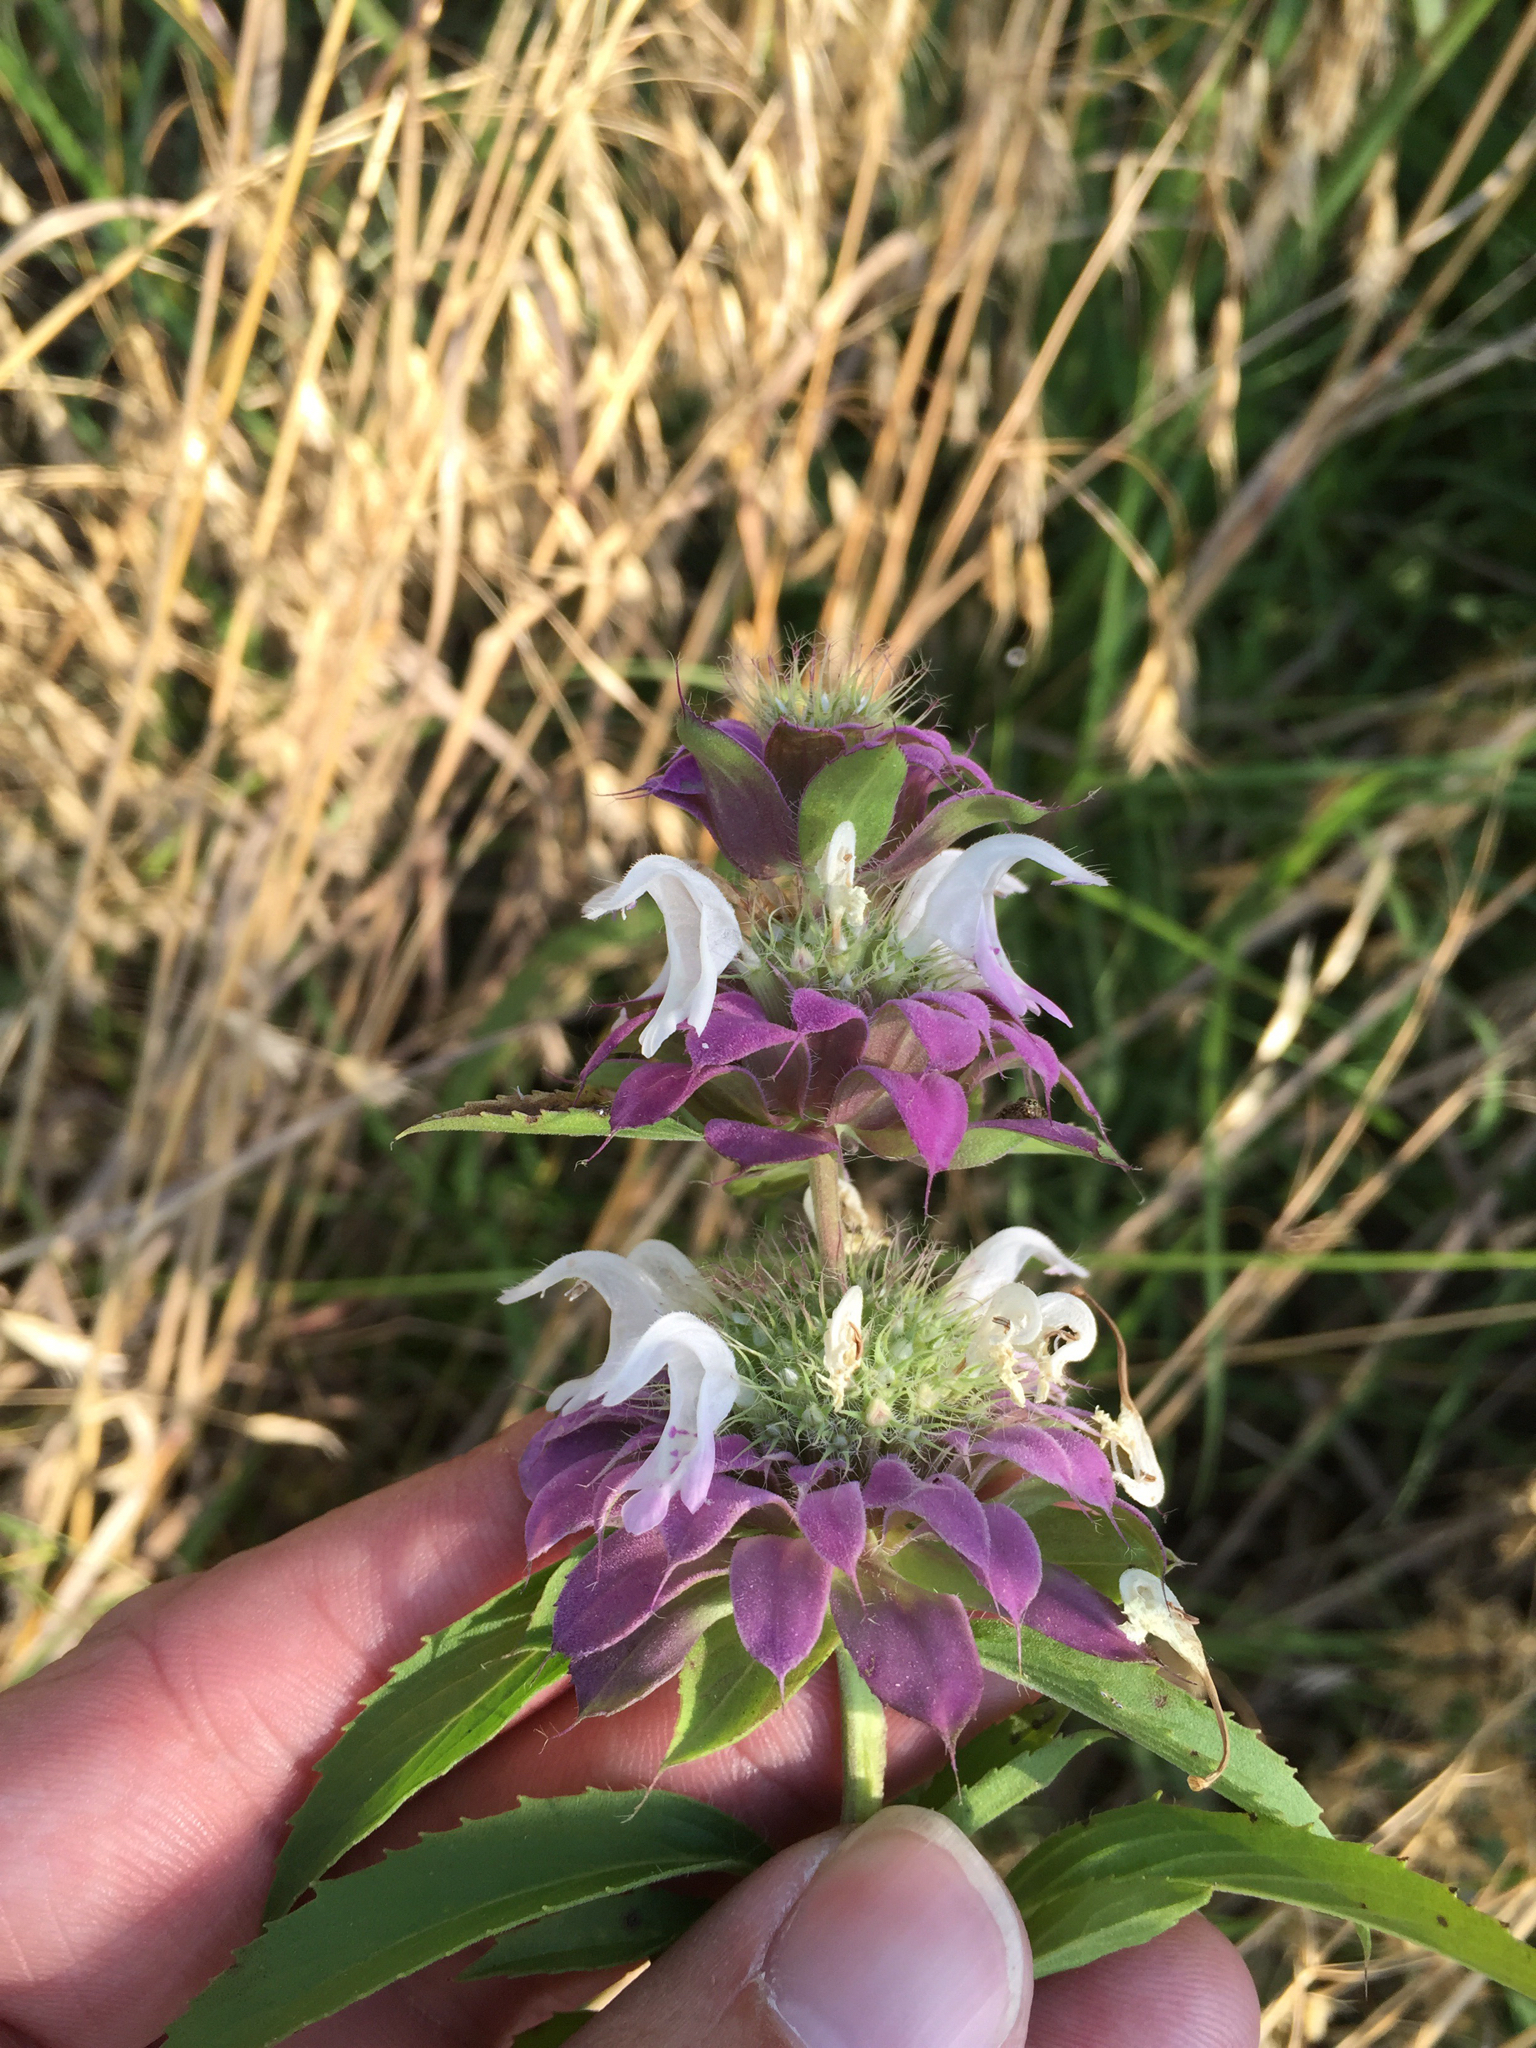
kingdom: Plantae
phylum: Tracheophyta
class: Magnoliopsida
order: Lamiales
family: Lamiaceae
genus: Monarda
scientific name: Monarda citriodora
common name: Lemon beebalm
